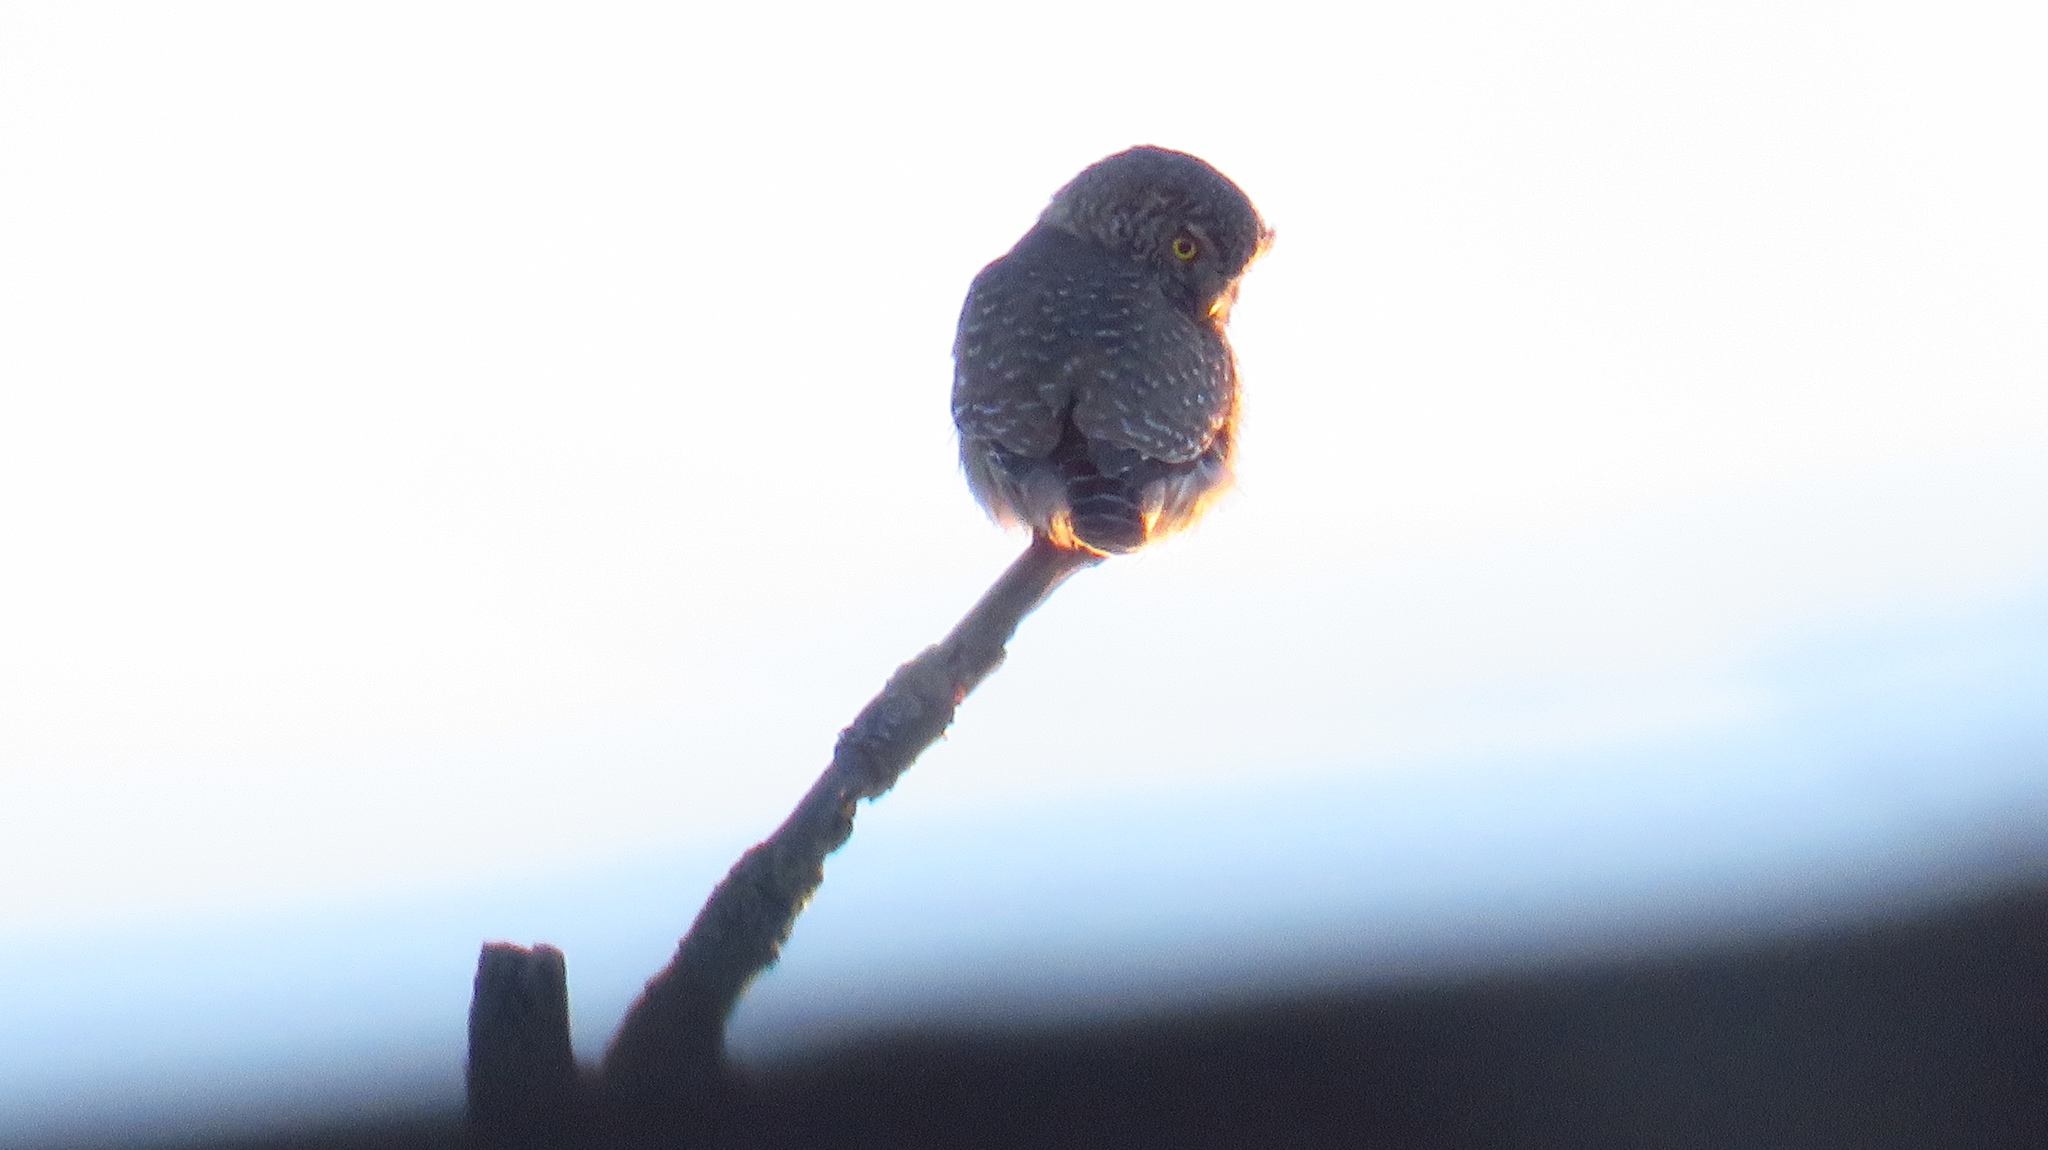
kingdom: Animalia
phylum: Chordata
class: Aves
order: Strigiformes
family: Strigidae
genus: Glaucidium
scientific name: Glaucidium passerinum
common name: Eurasian pygmy owl
